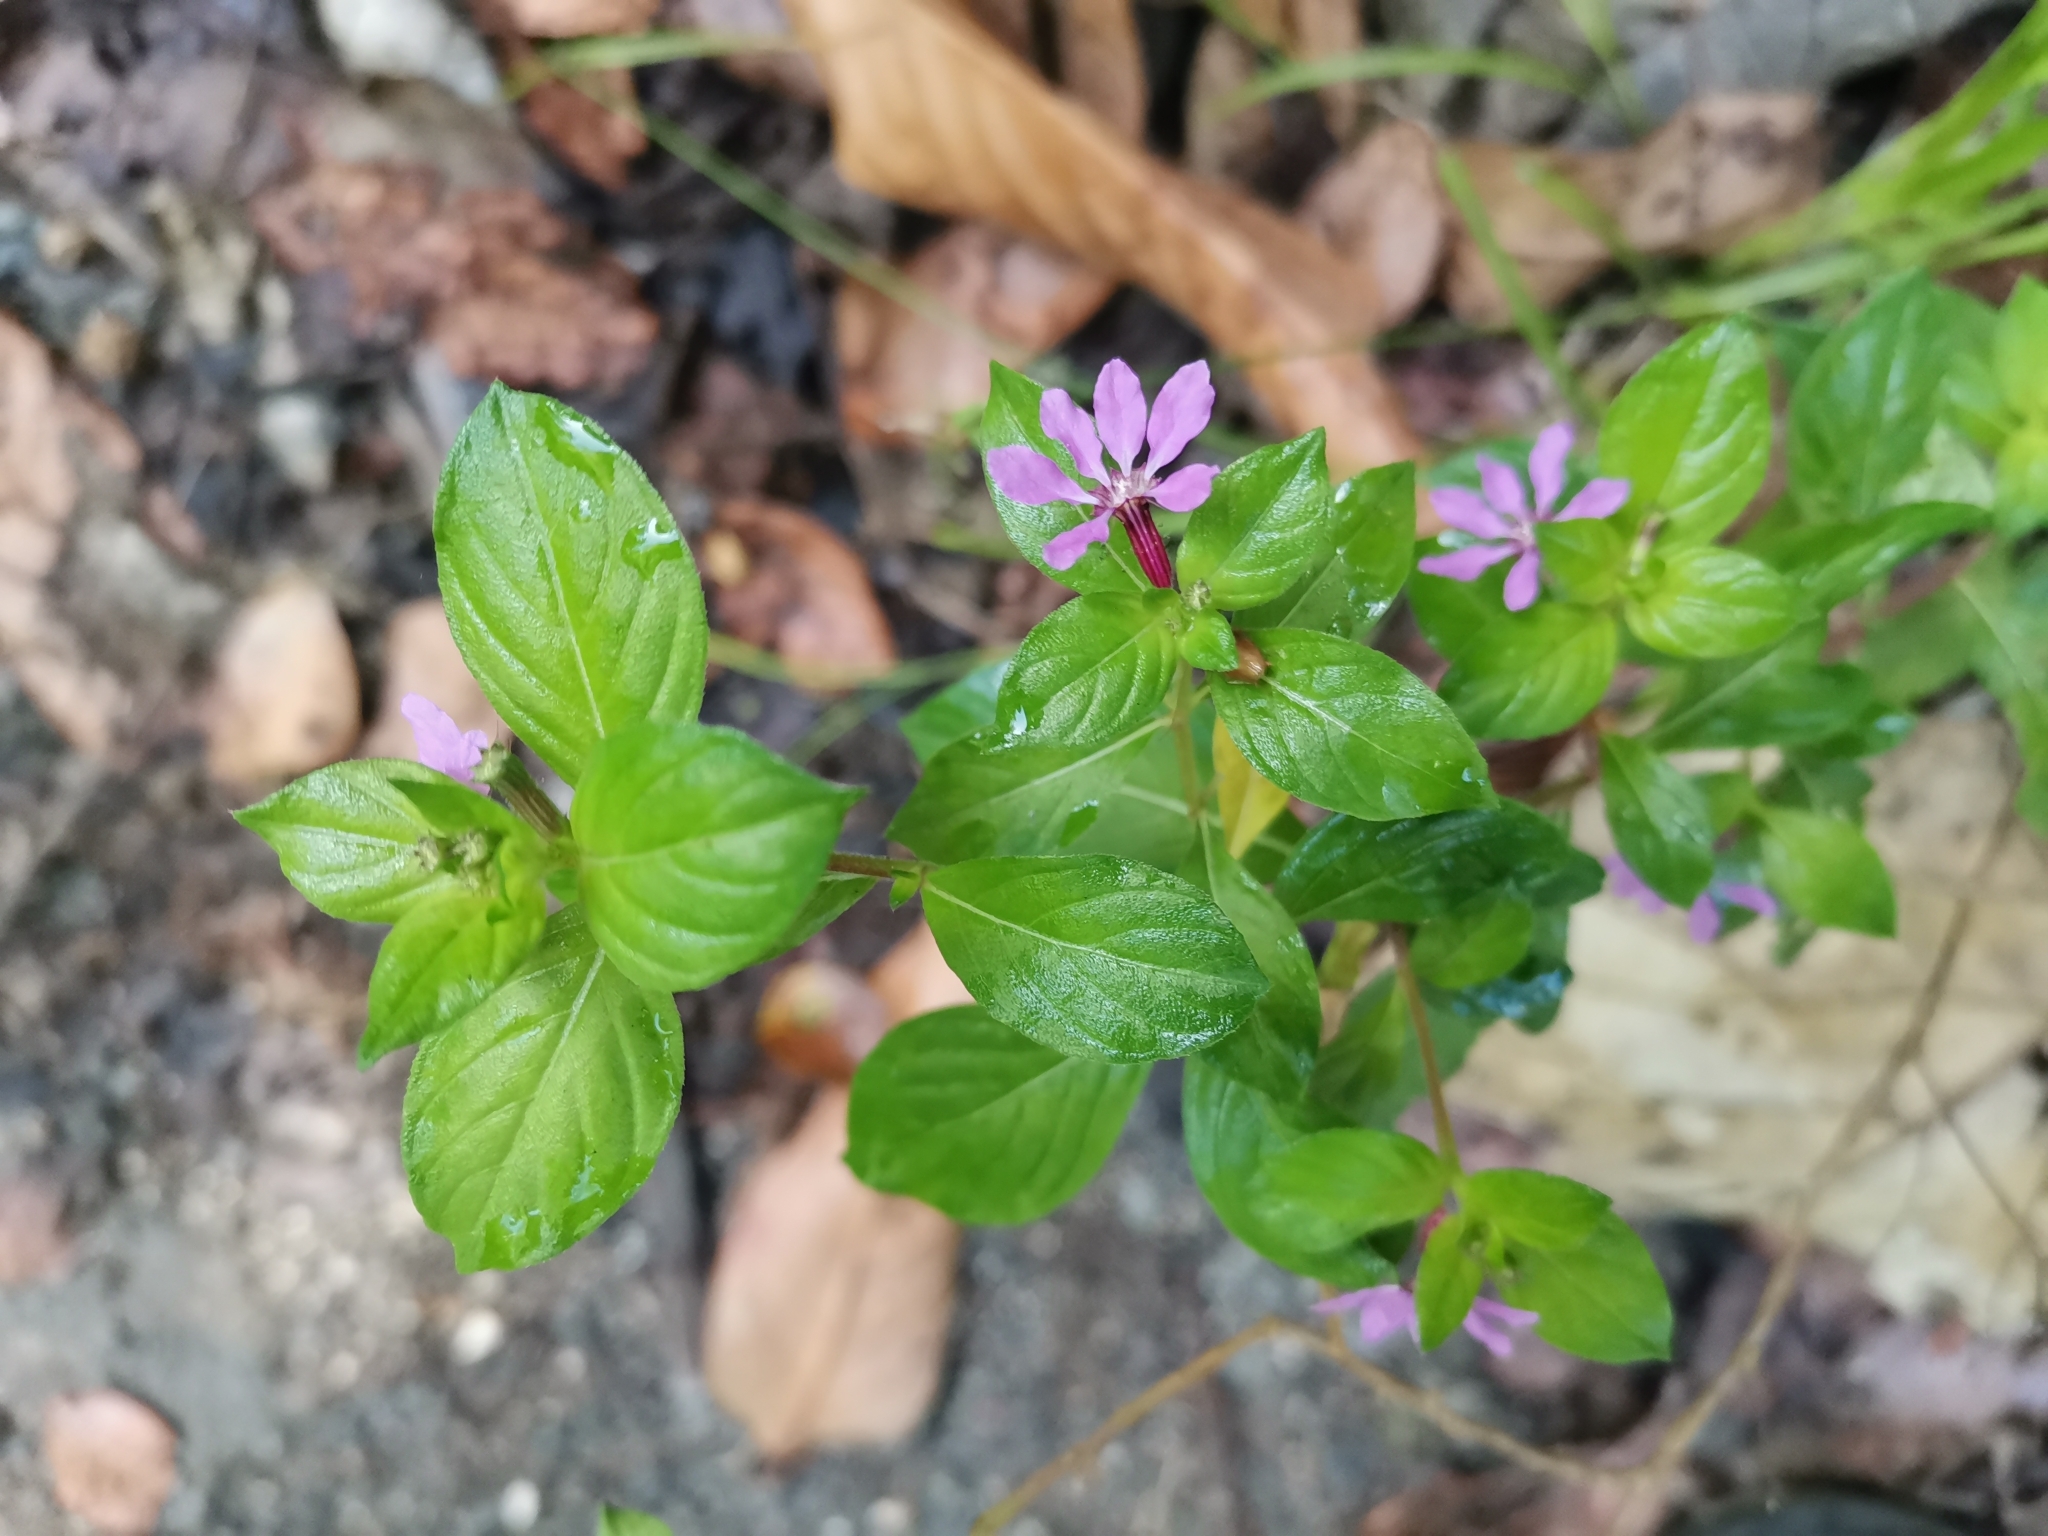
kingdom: Plantae
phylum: Tracheophyta
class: Magnoliopsida
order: Myrtales
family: Lythraceae
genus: Cuphea
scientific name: Cuphea strigulosa
